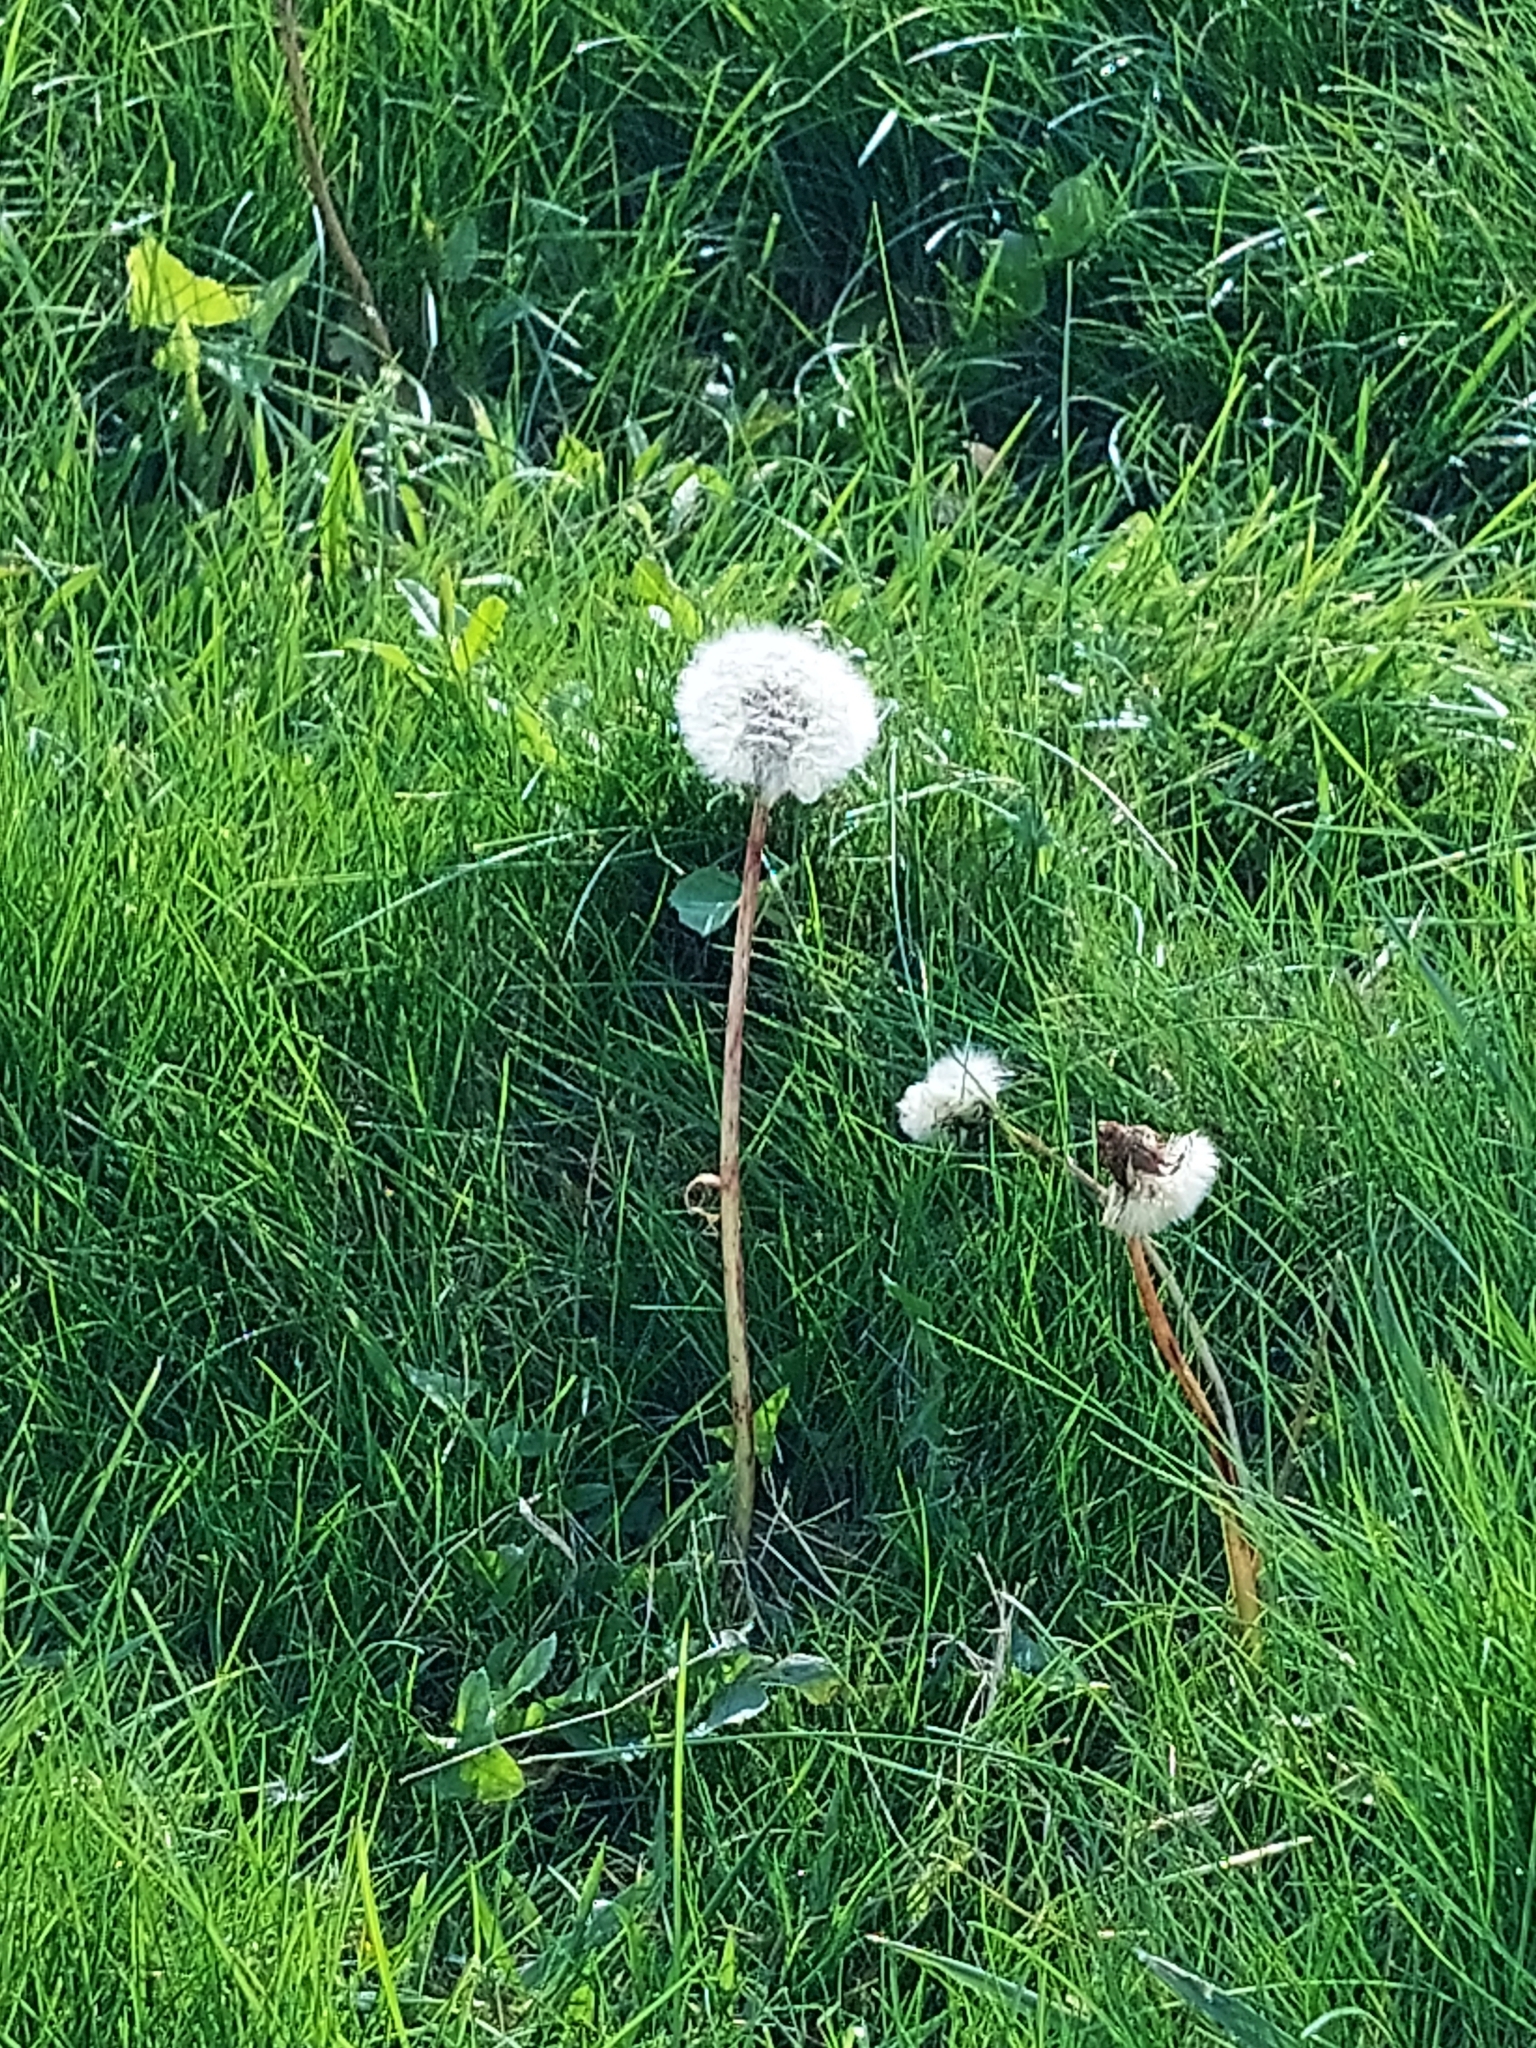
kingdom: Plantae
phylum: Tracheophyta
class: Magnoliopsida
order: Asterales
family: Asteraceae
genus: Taraxacum
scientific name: Taraxacum officinale
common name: Common dandelion
